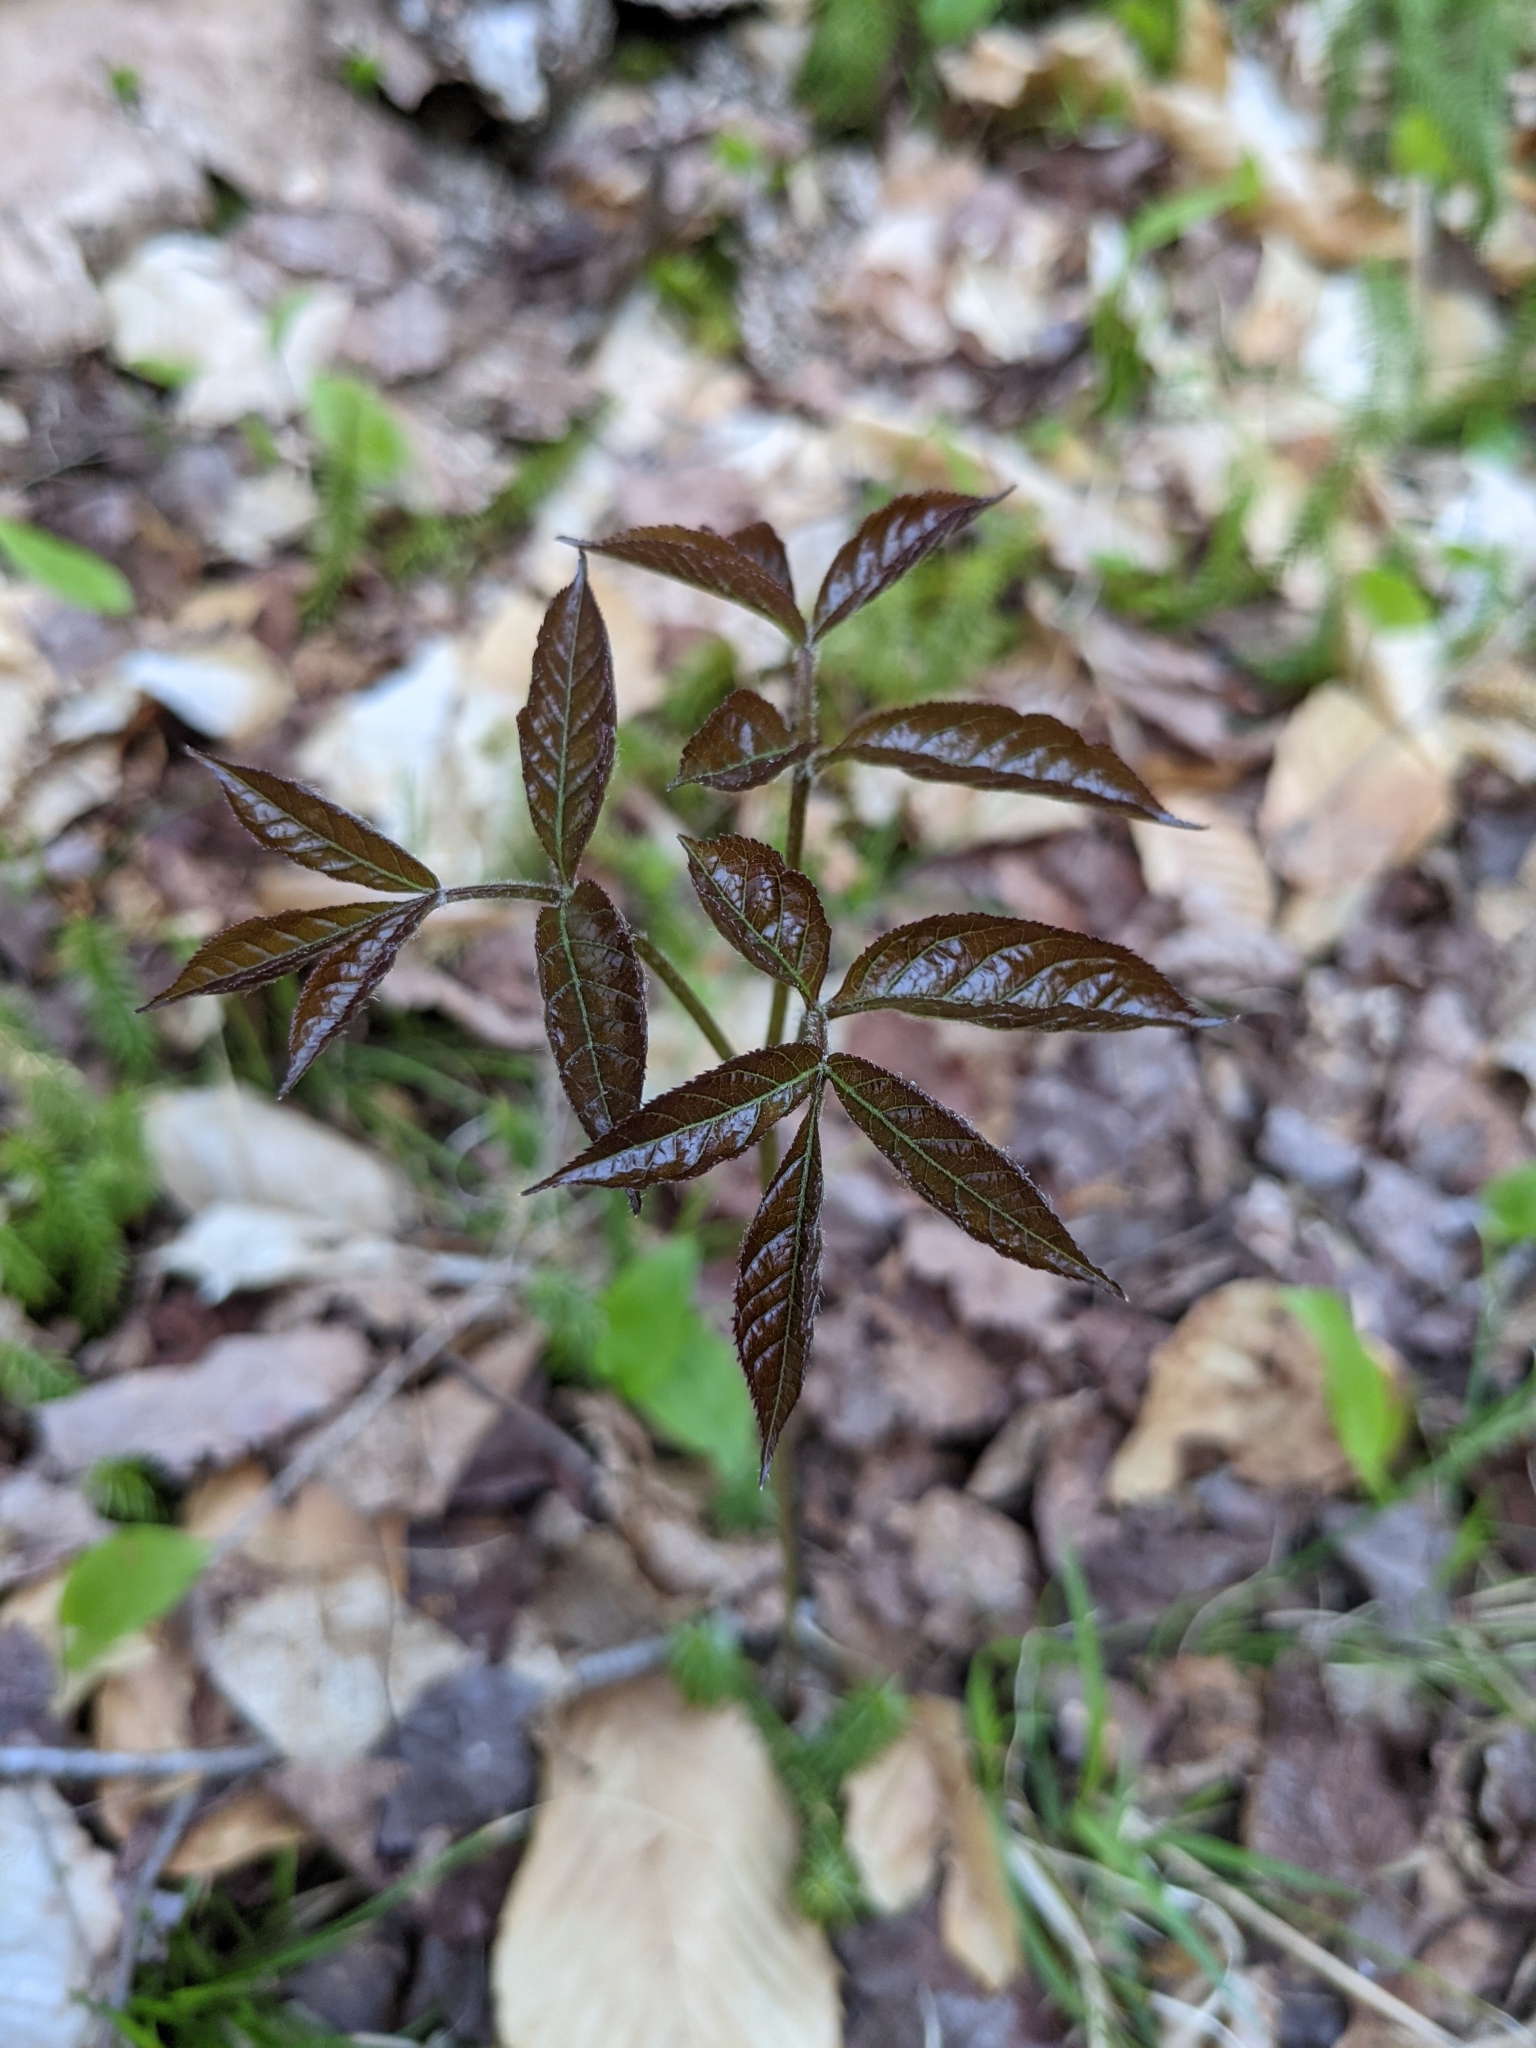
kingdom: Plantae
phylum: Tracheophyta
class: Magnoliopsida
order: Apiales
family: Araliaceae
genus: Aralia
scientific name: Aralia nudicaulis
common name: Wild sarsaparilla
